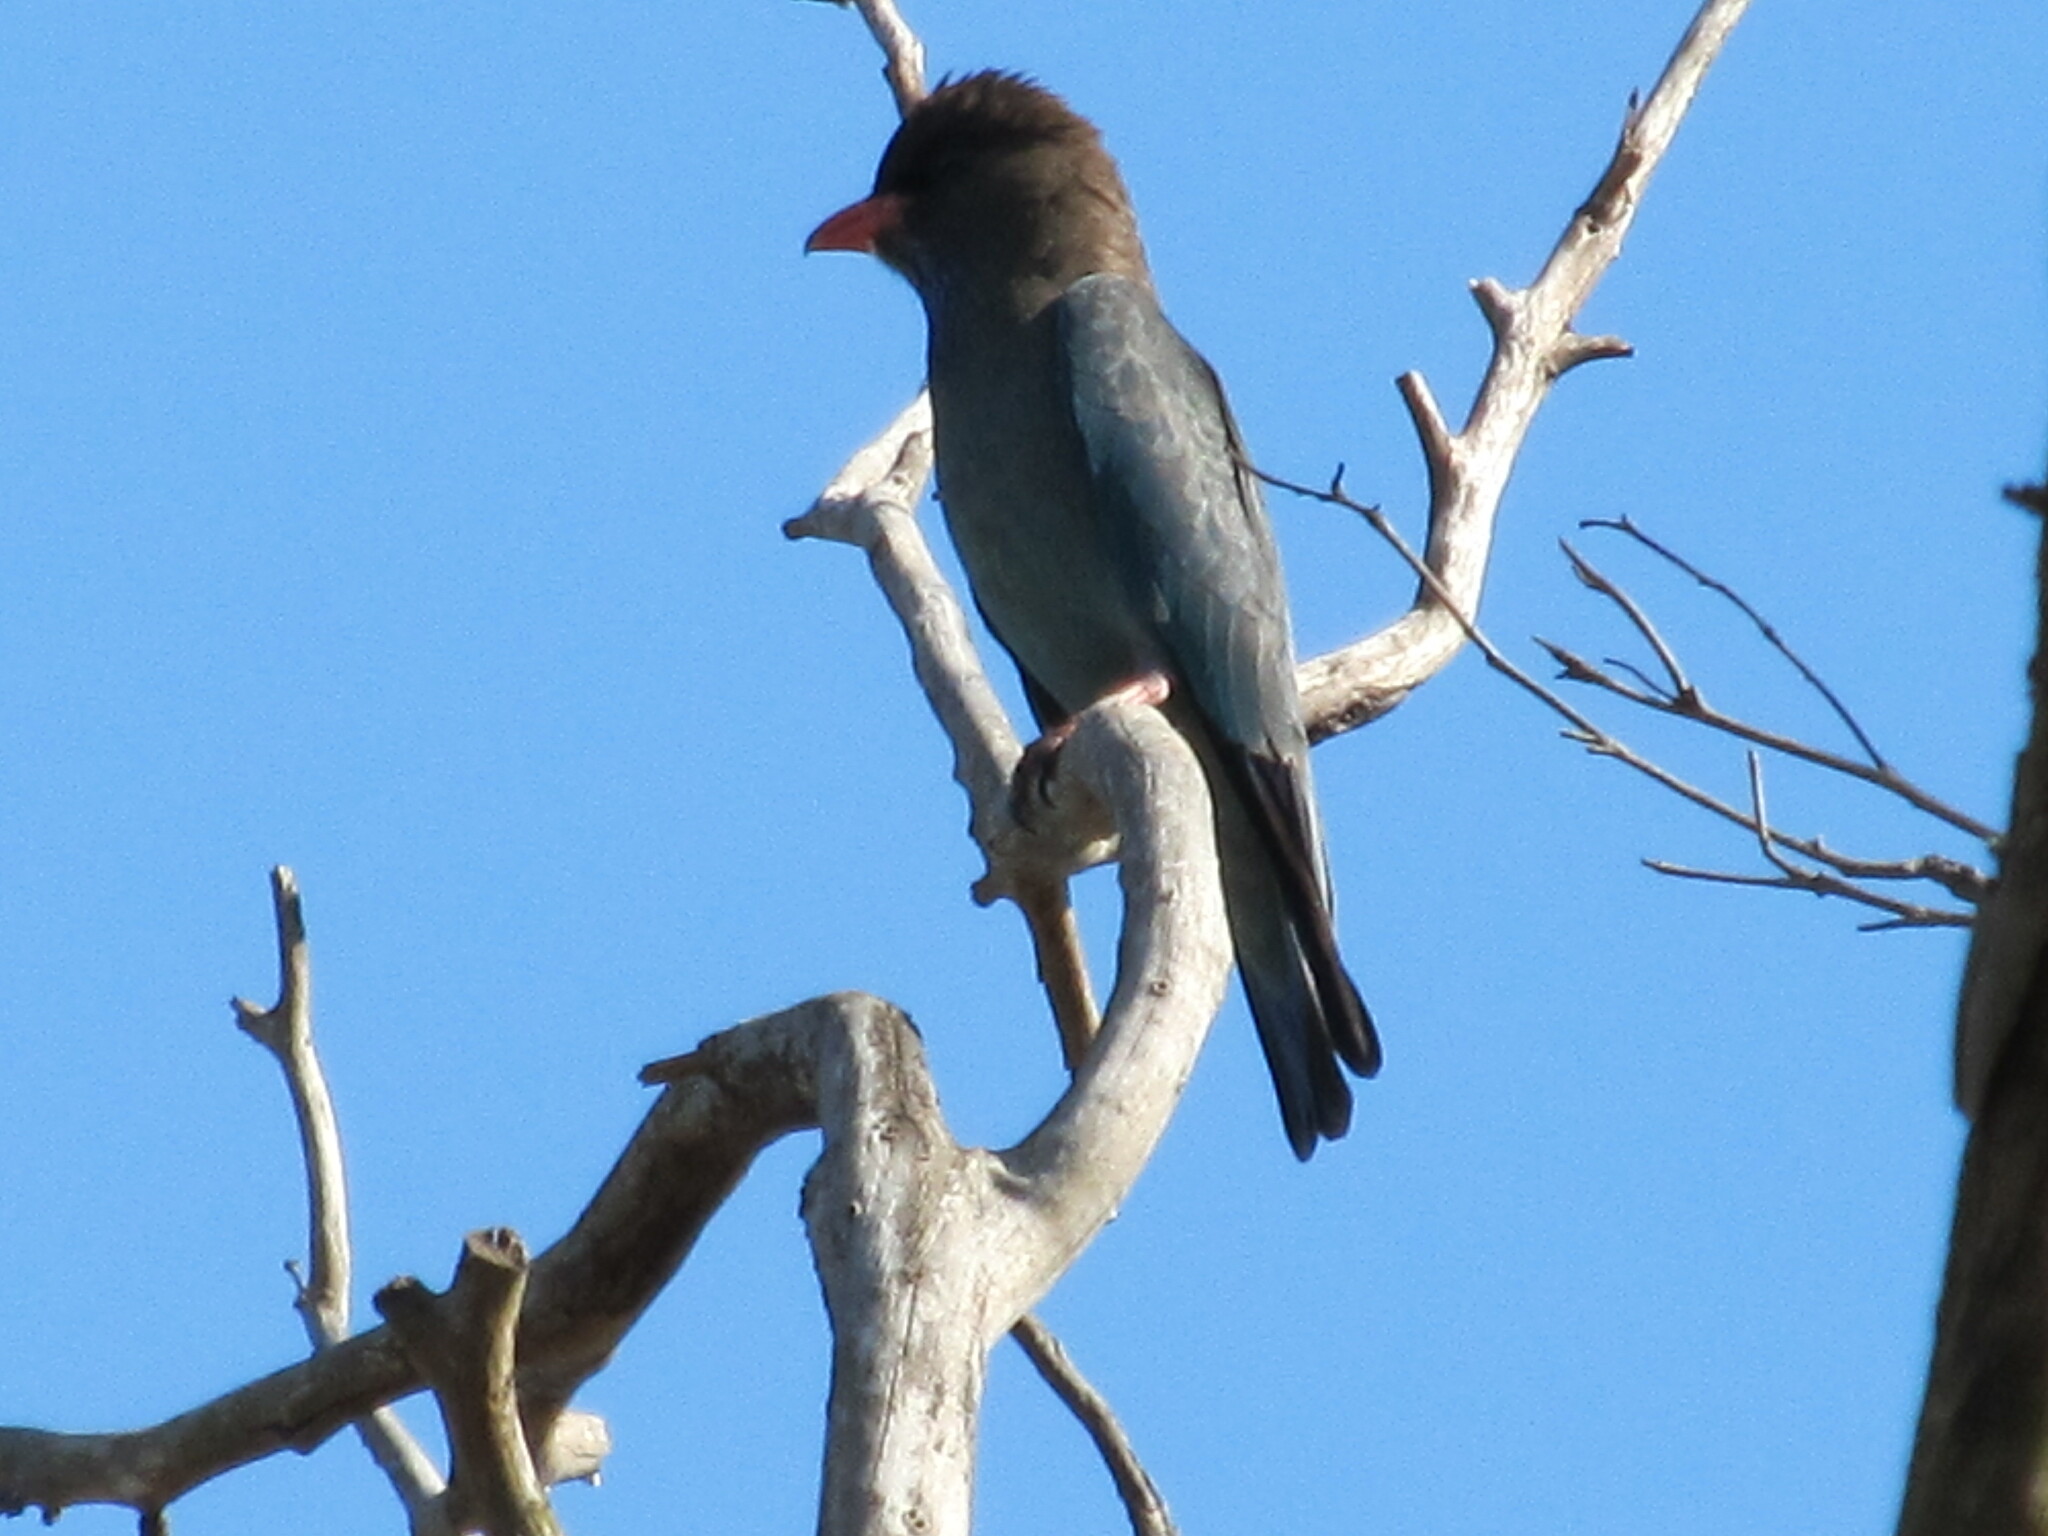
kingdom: Animalia
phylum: Chordata
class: Aves
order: Coraciiformes
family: Coraciidae
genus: Eurystomus
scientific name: Eurystomus orientalis
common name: Oriental dollarbird
